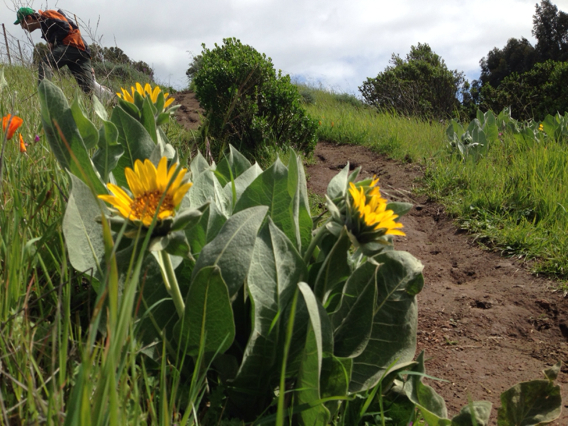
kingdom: Plantae
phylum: Tracheophyta
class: Magnoliopsida
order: Asterales
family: Asteraceae
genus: Wyethia
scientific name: Wyethia helenioides
